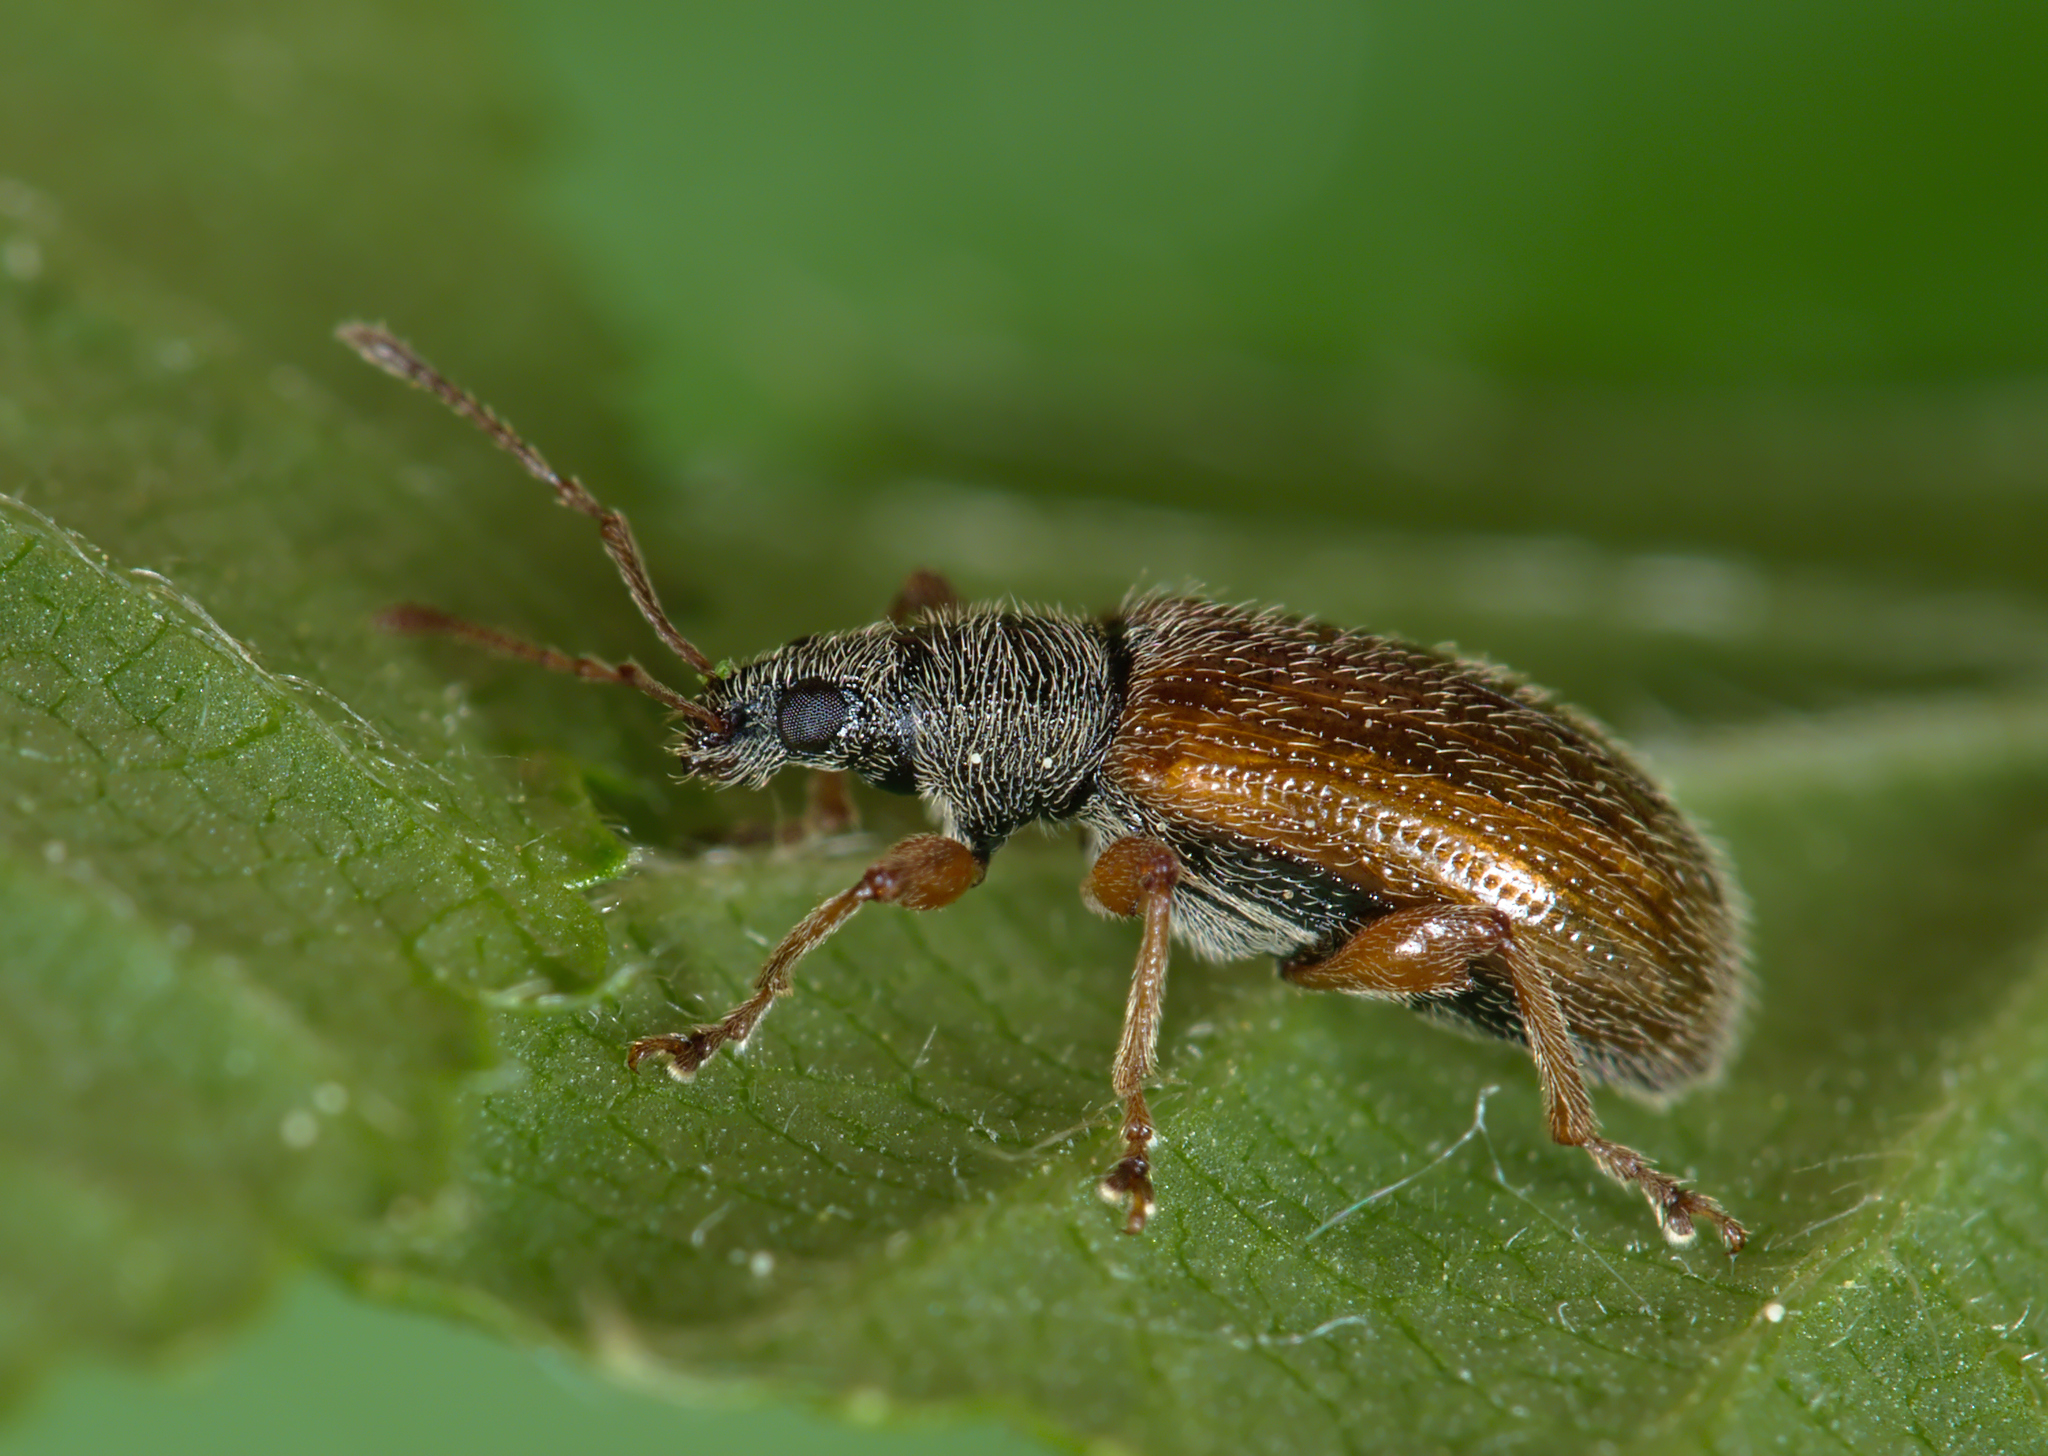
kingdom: Animalia
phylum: Arthropoda
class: Insecta
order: Coleoptera
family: Curculionidae
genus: Phyllobius
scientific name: Phyllobius oblongus
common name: Brown leaf weevil
